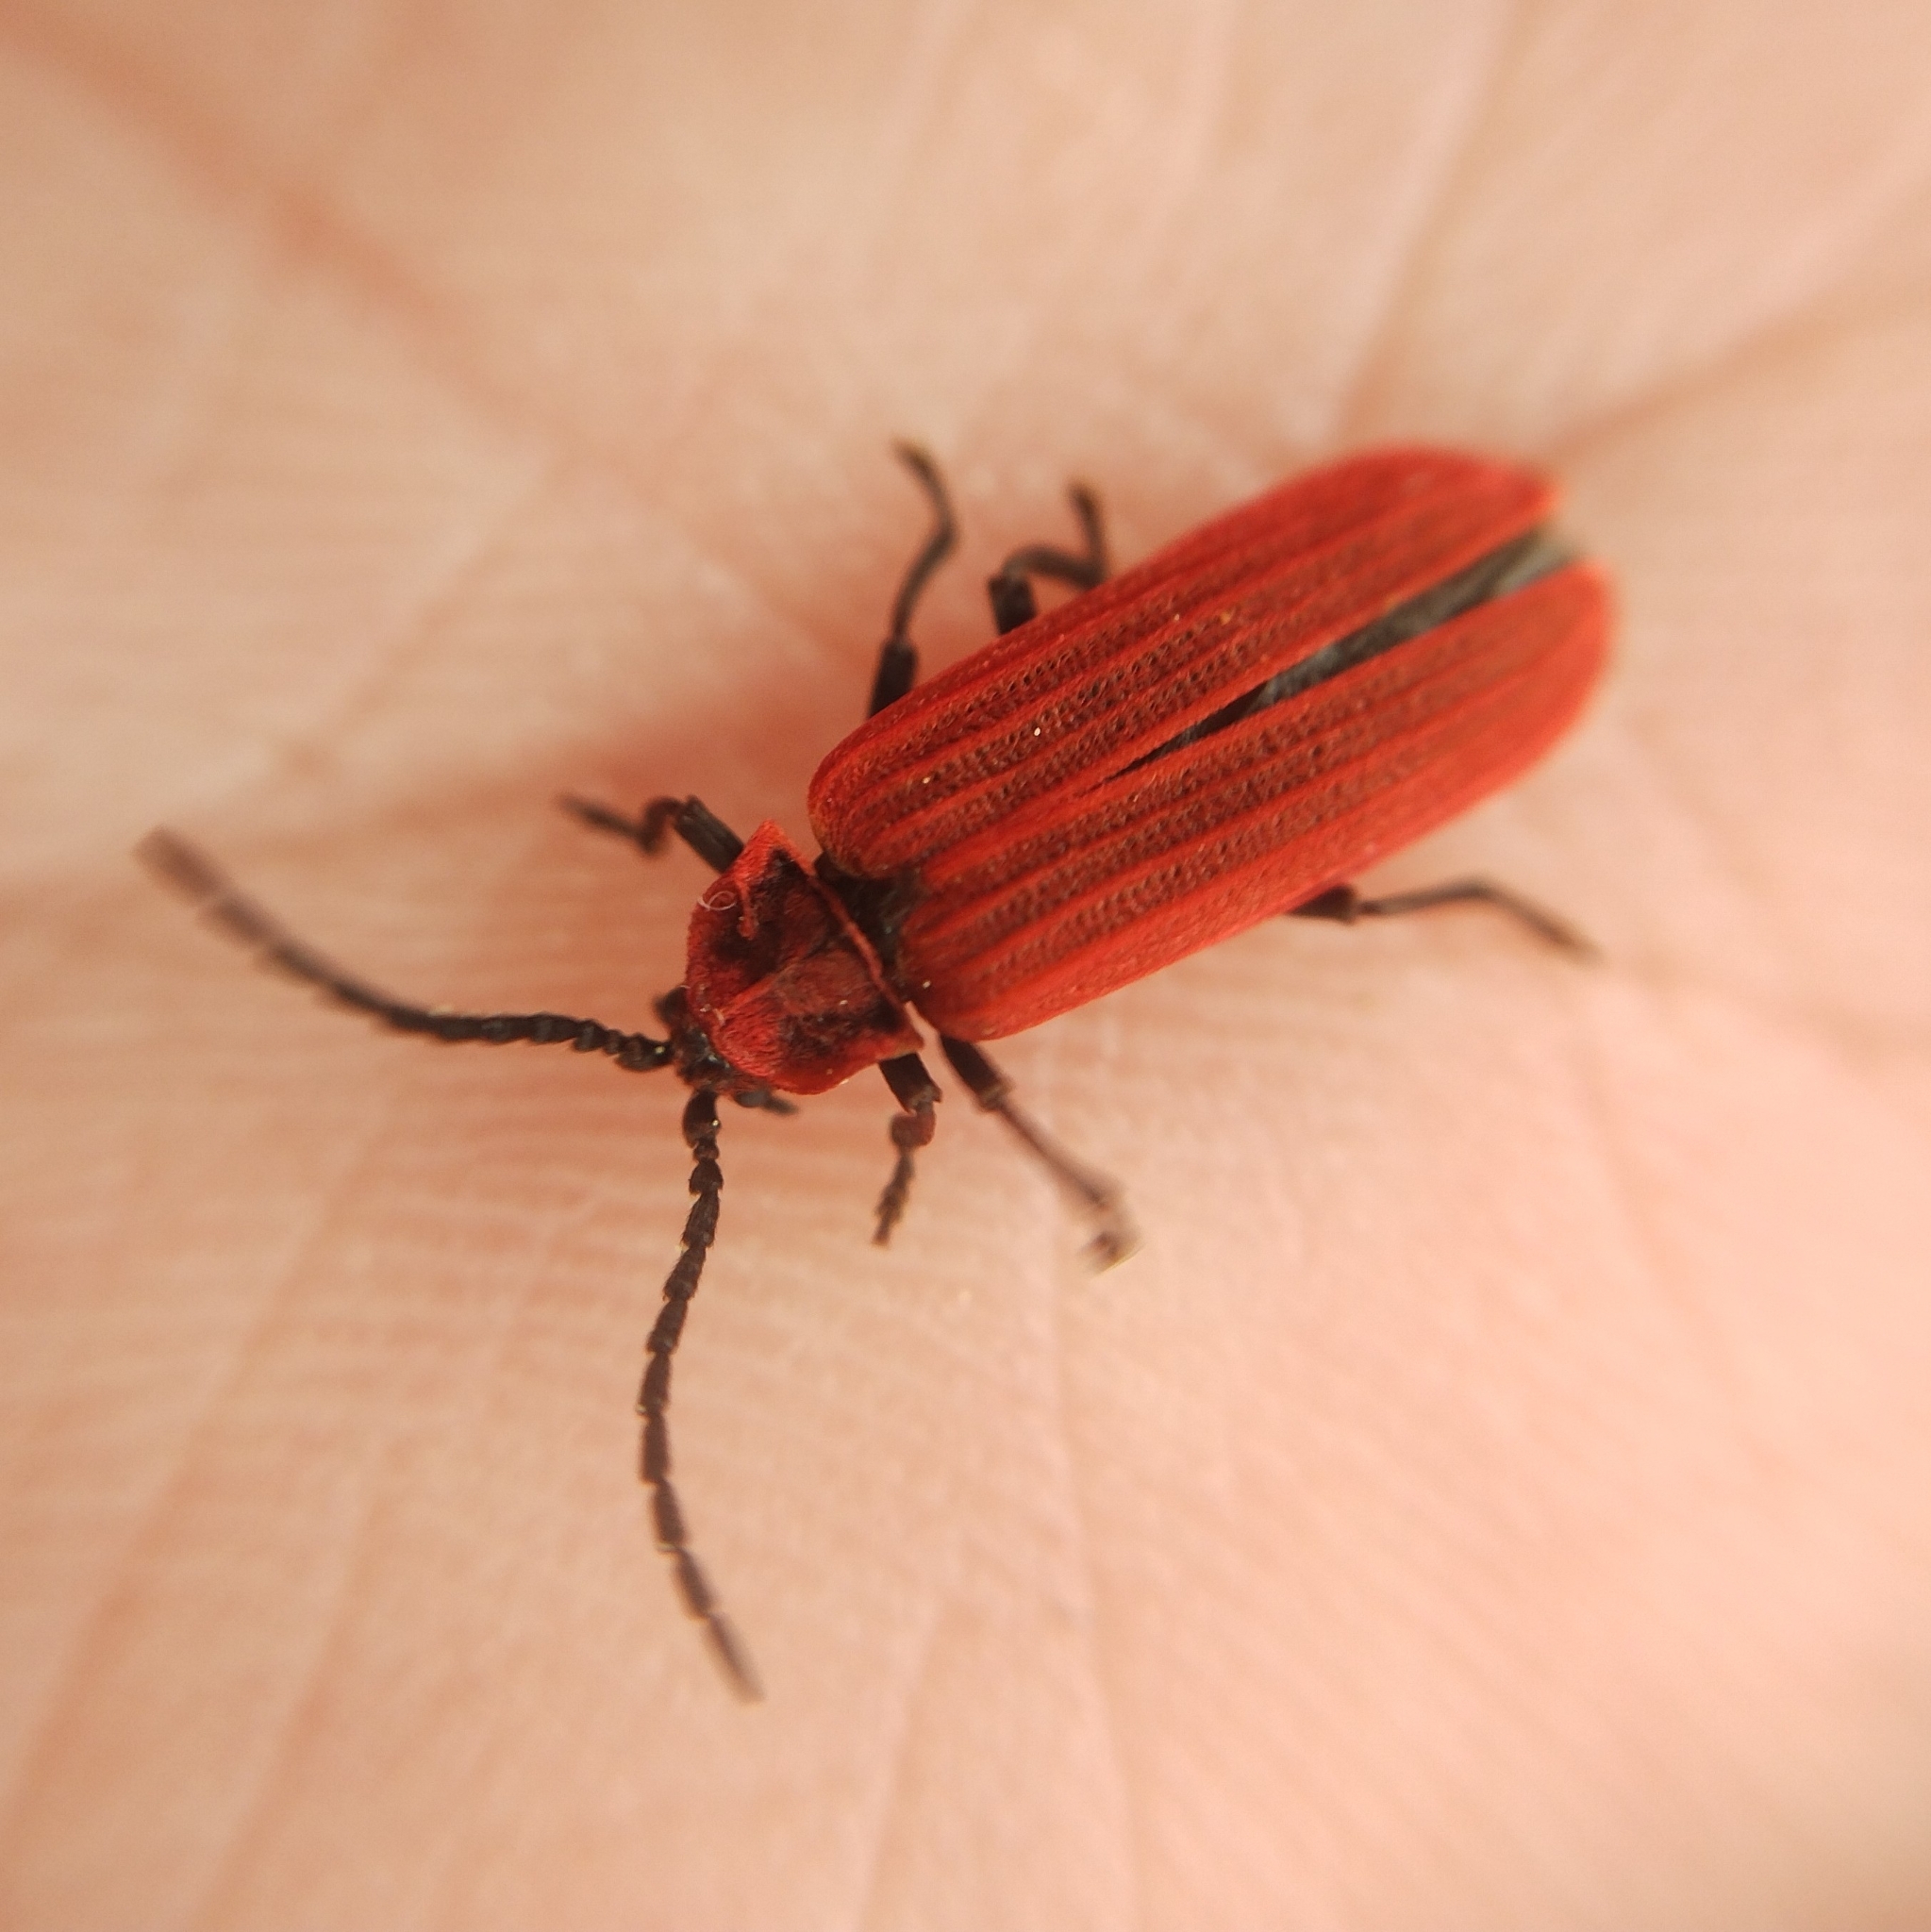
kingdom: Animalia
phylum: Arthropoda
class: Insecta
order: Coleoptera
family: Lycidae
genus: Lopheros
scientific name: Lopheros rubens
